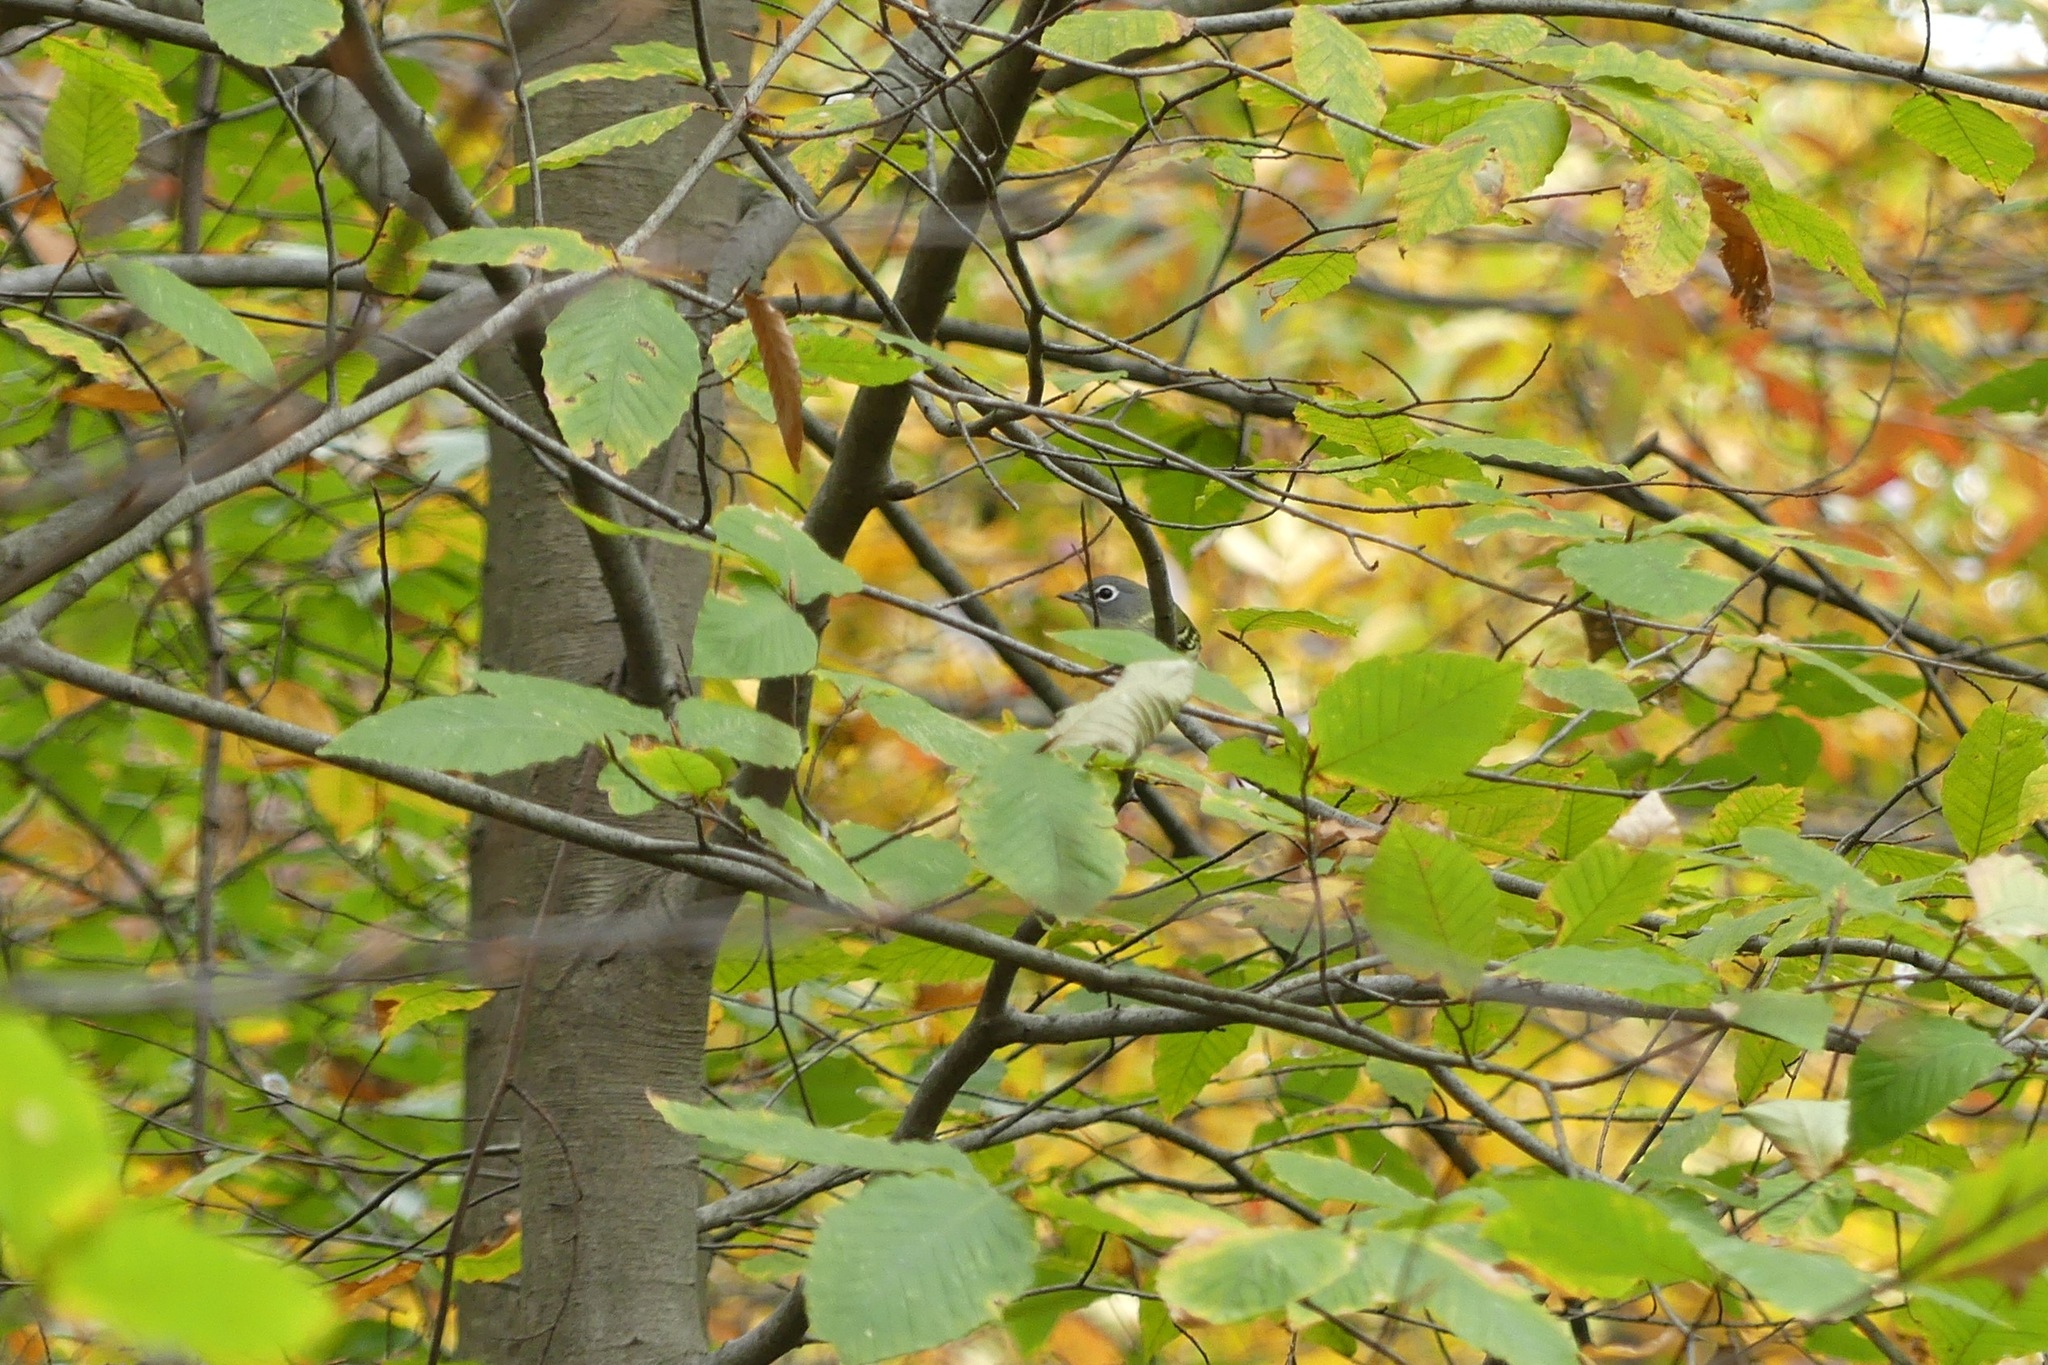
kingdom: Animalia
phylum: Chordata
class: Aves
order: Passeriformes
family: Vireonidae
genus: Vireo
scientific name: Vireo solitarius
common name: Blue-headed vireo
